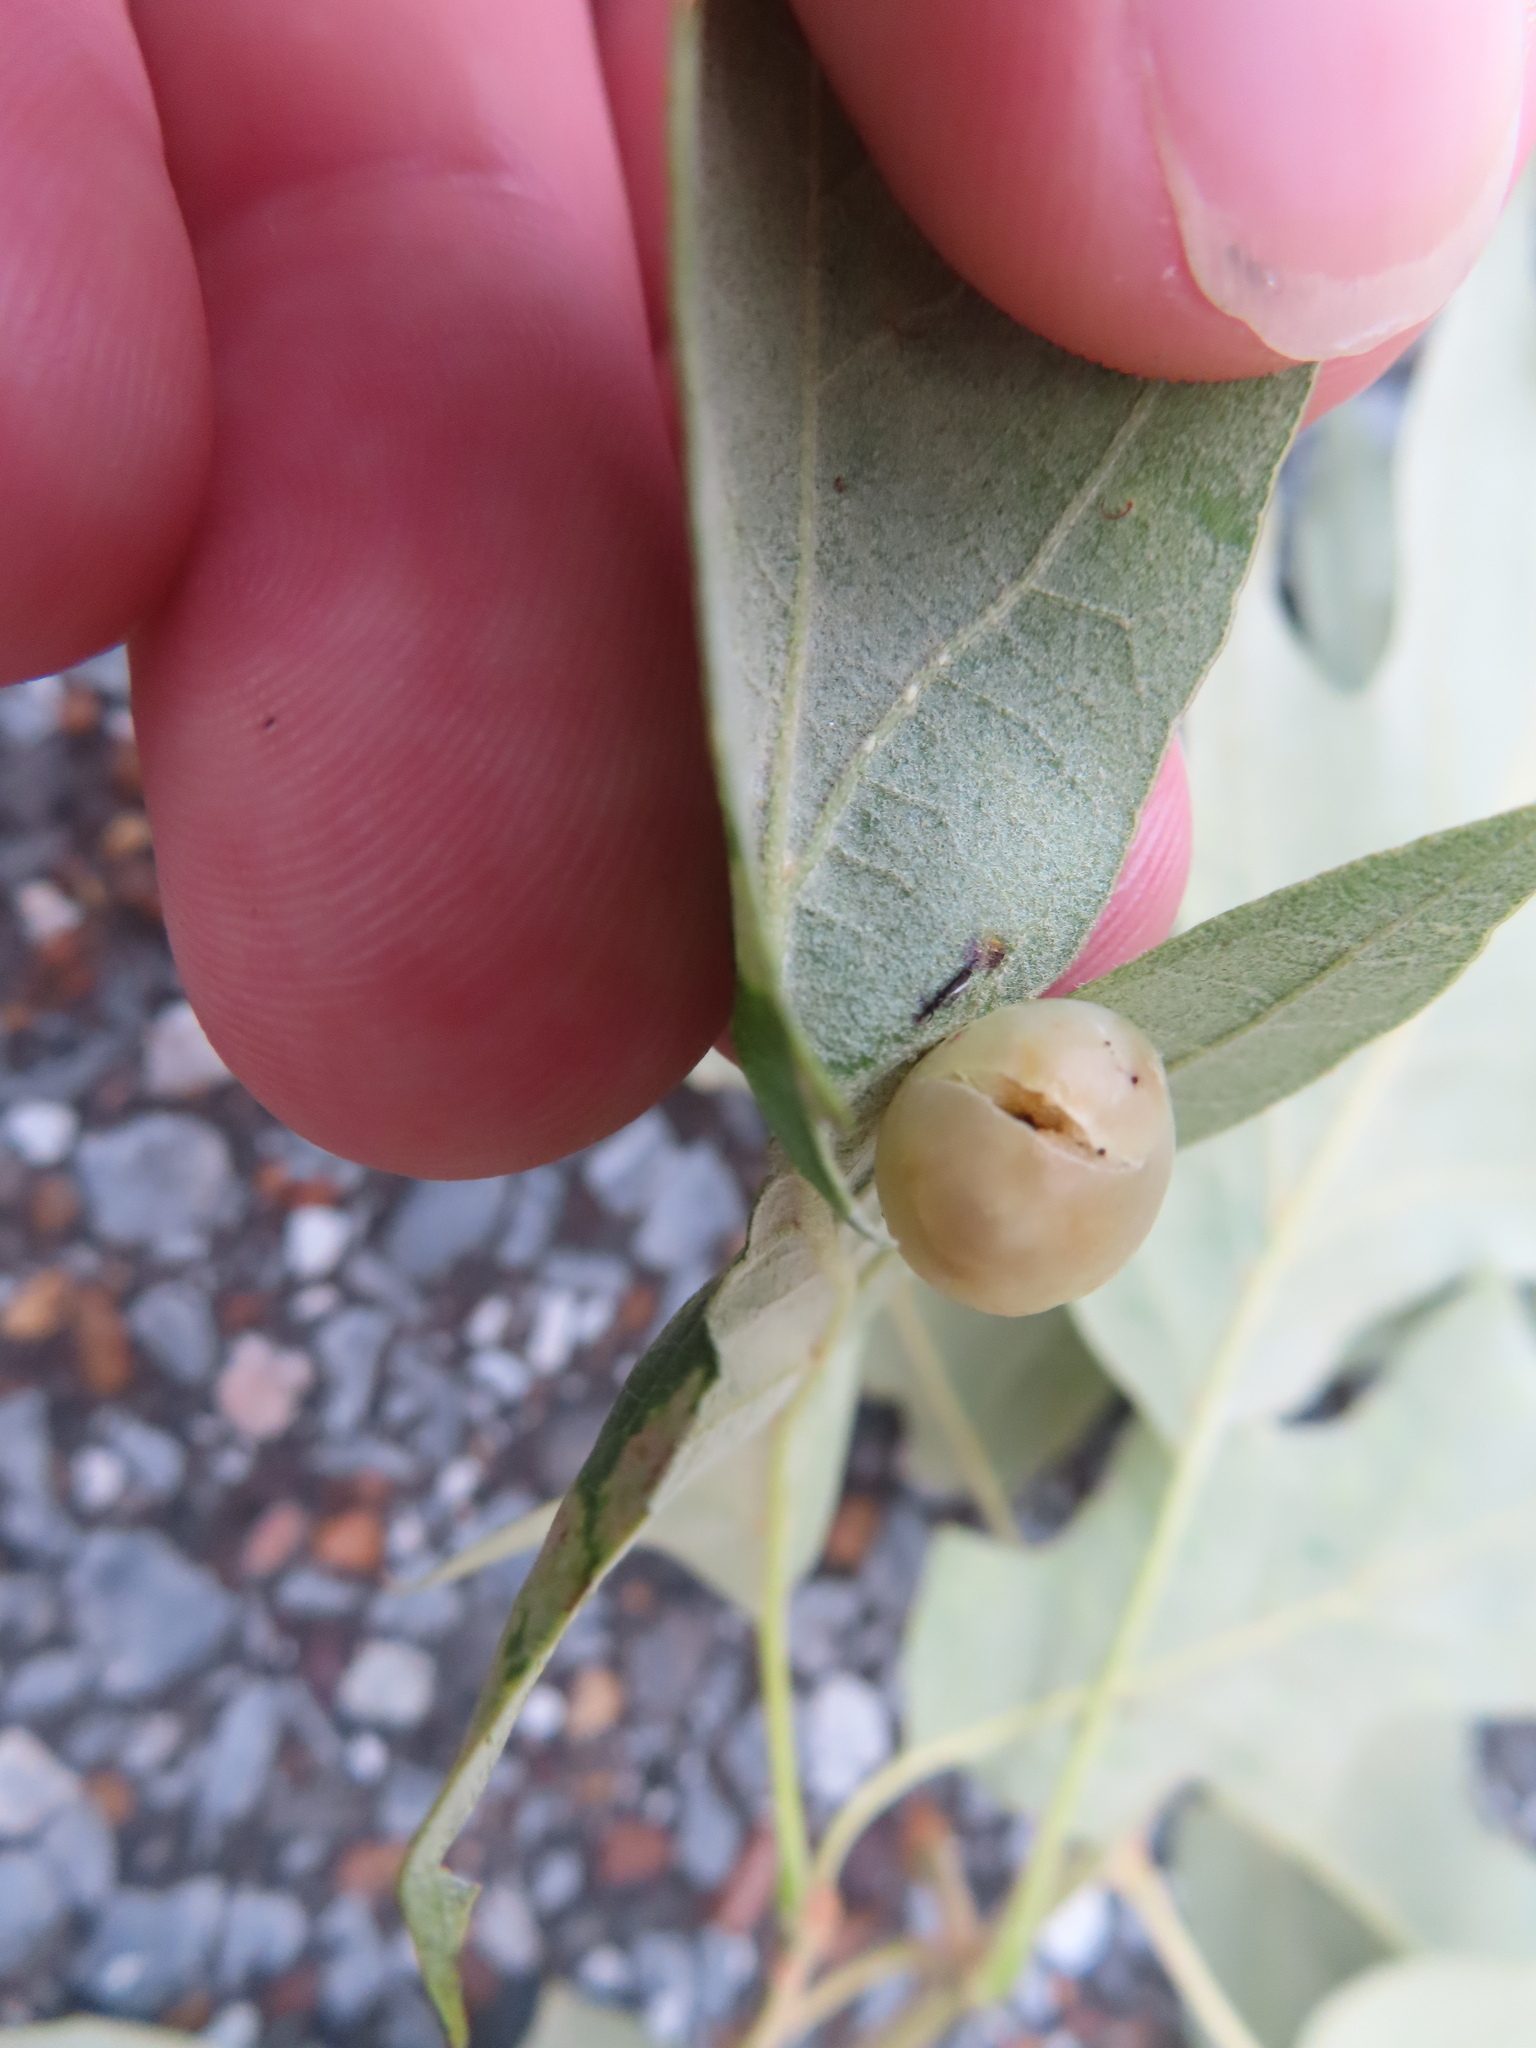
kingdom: Animalia
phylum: Arthropoda
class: Insecta
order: Hymenoptera
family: Cynipidae
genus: Amphibolips
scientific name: Amphibolips
